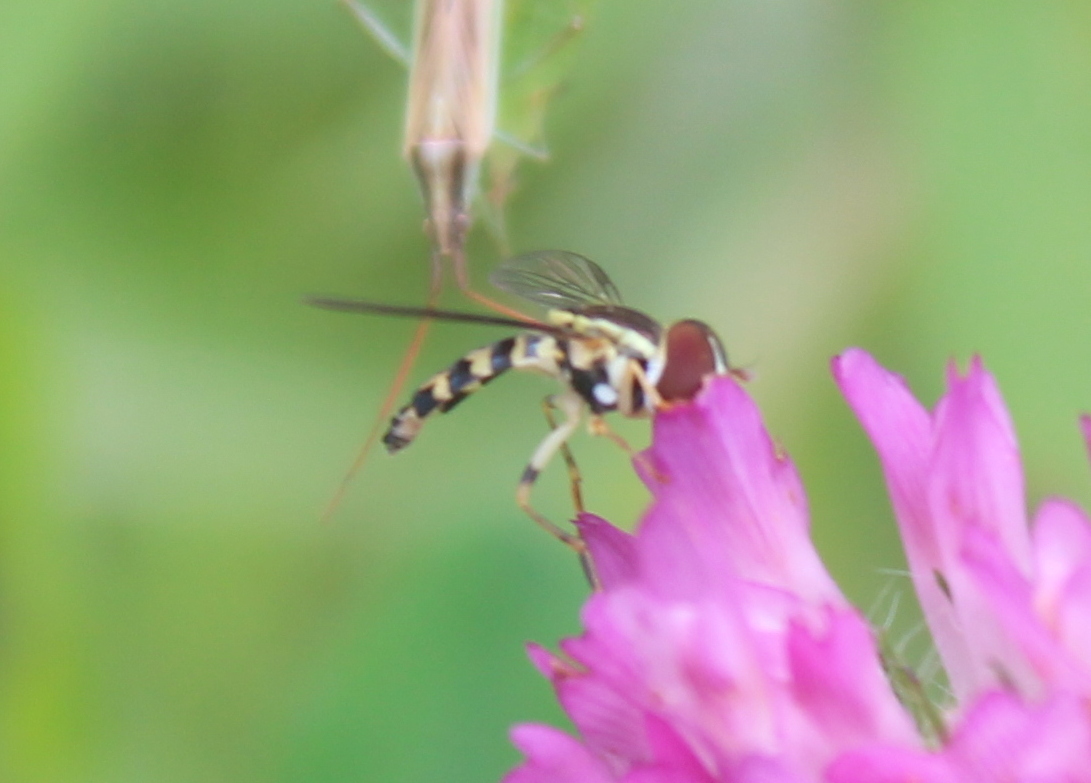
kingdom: Animalia
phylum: Arthropoda
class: Insecta
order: Diptera
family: Syrphidae
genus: Toxomerus
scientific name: Toxomerus geminatus
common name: Eastern calligrapher
